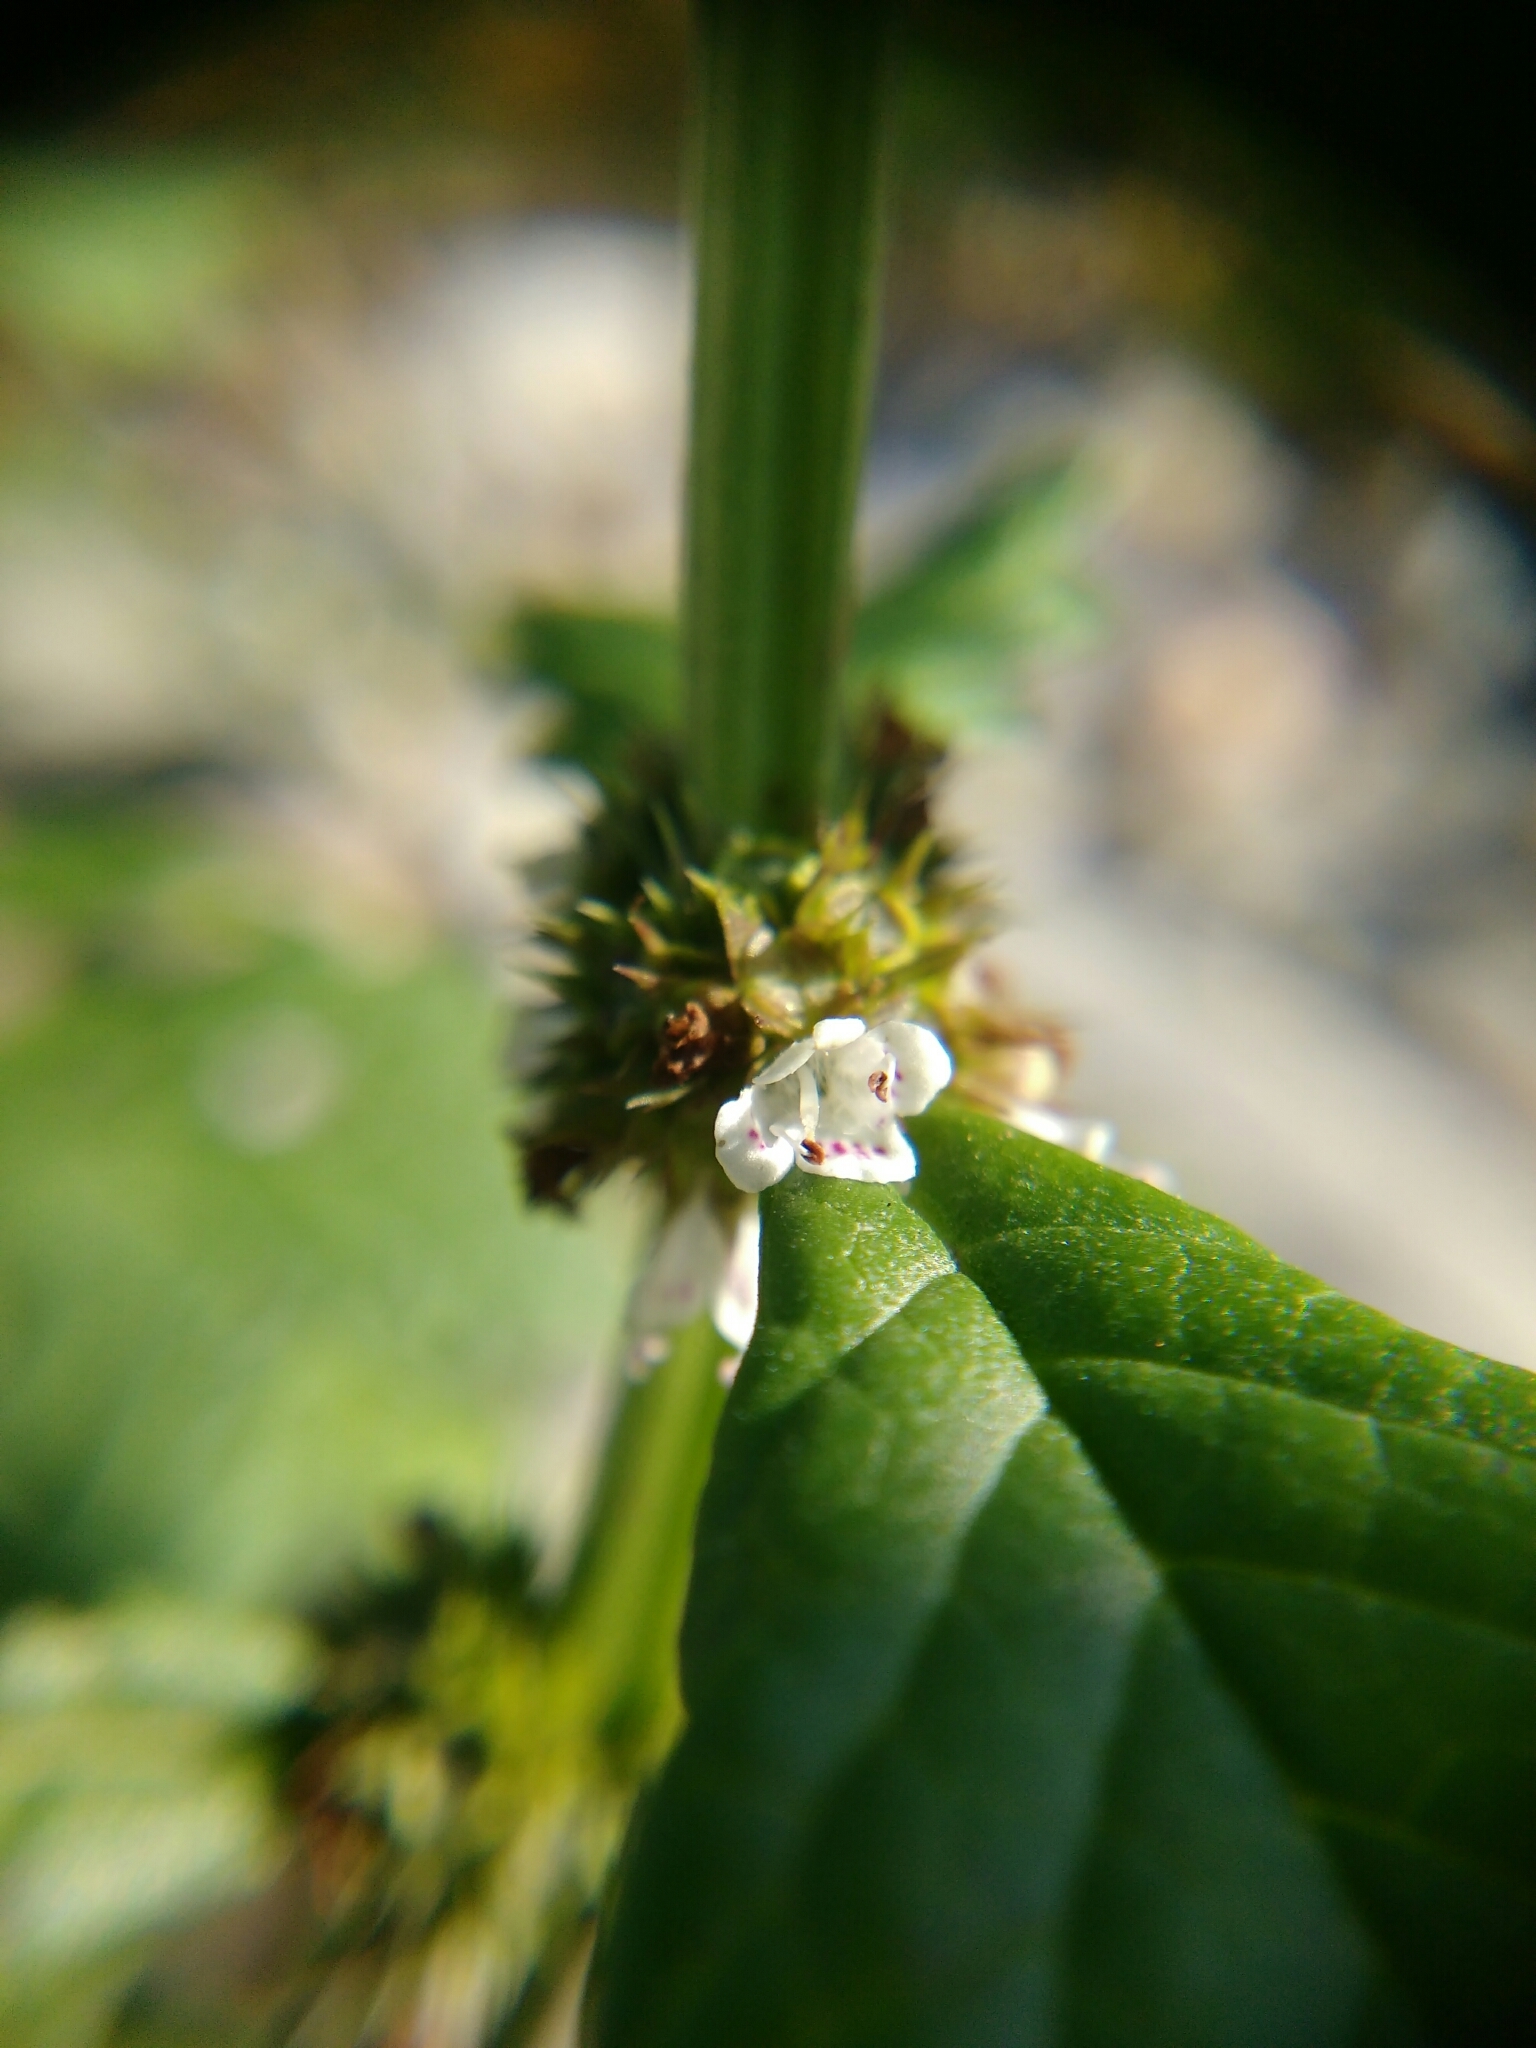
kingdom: Plantae
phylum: Tracheophyta
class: Magnoliopsida
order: Lamiales
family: Lamiaceae
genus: Lycopus
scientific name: Lycopus europaeus
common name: European bugleweed
